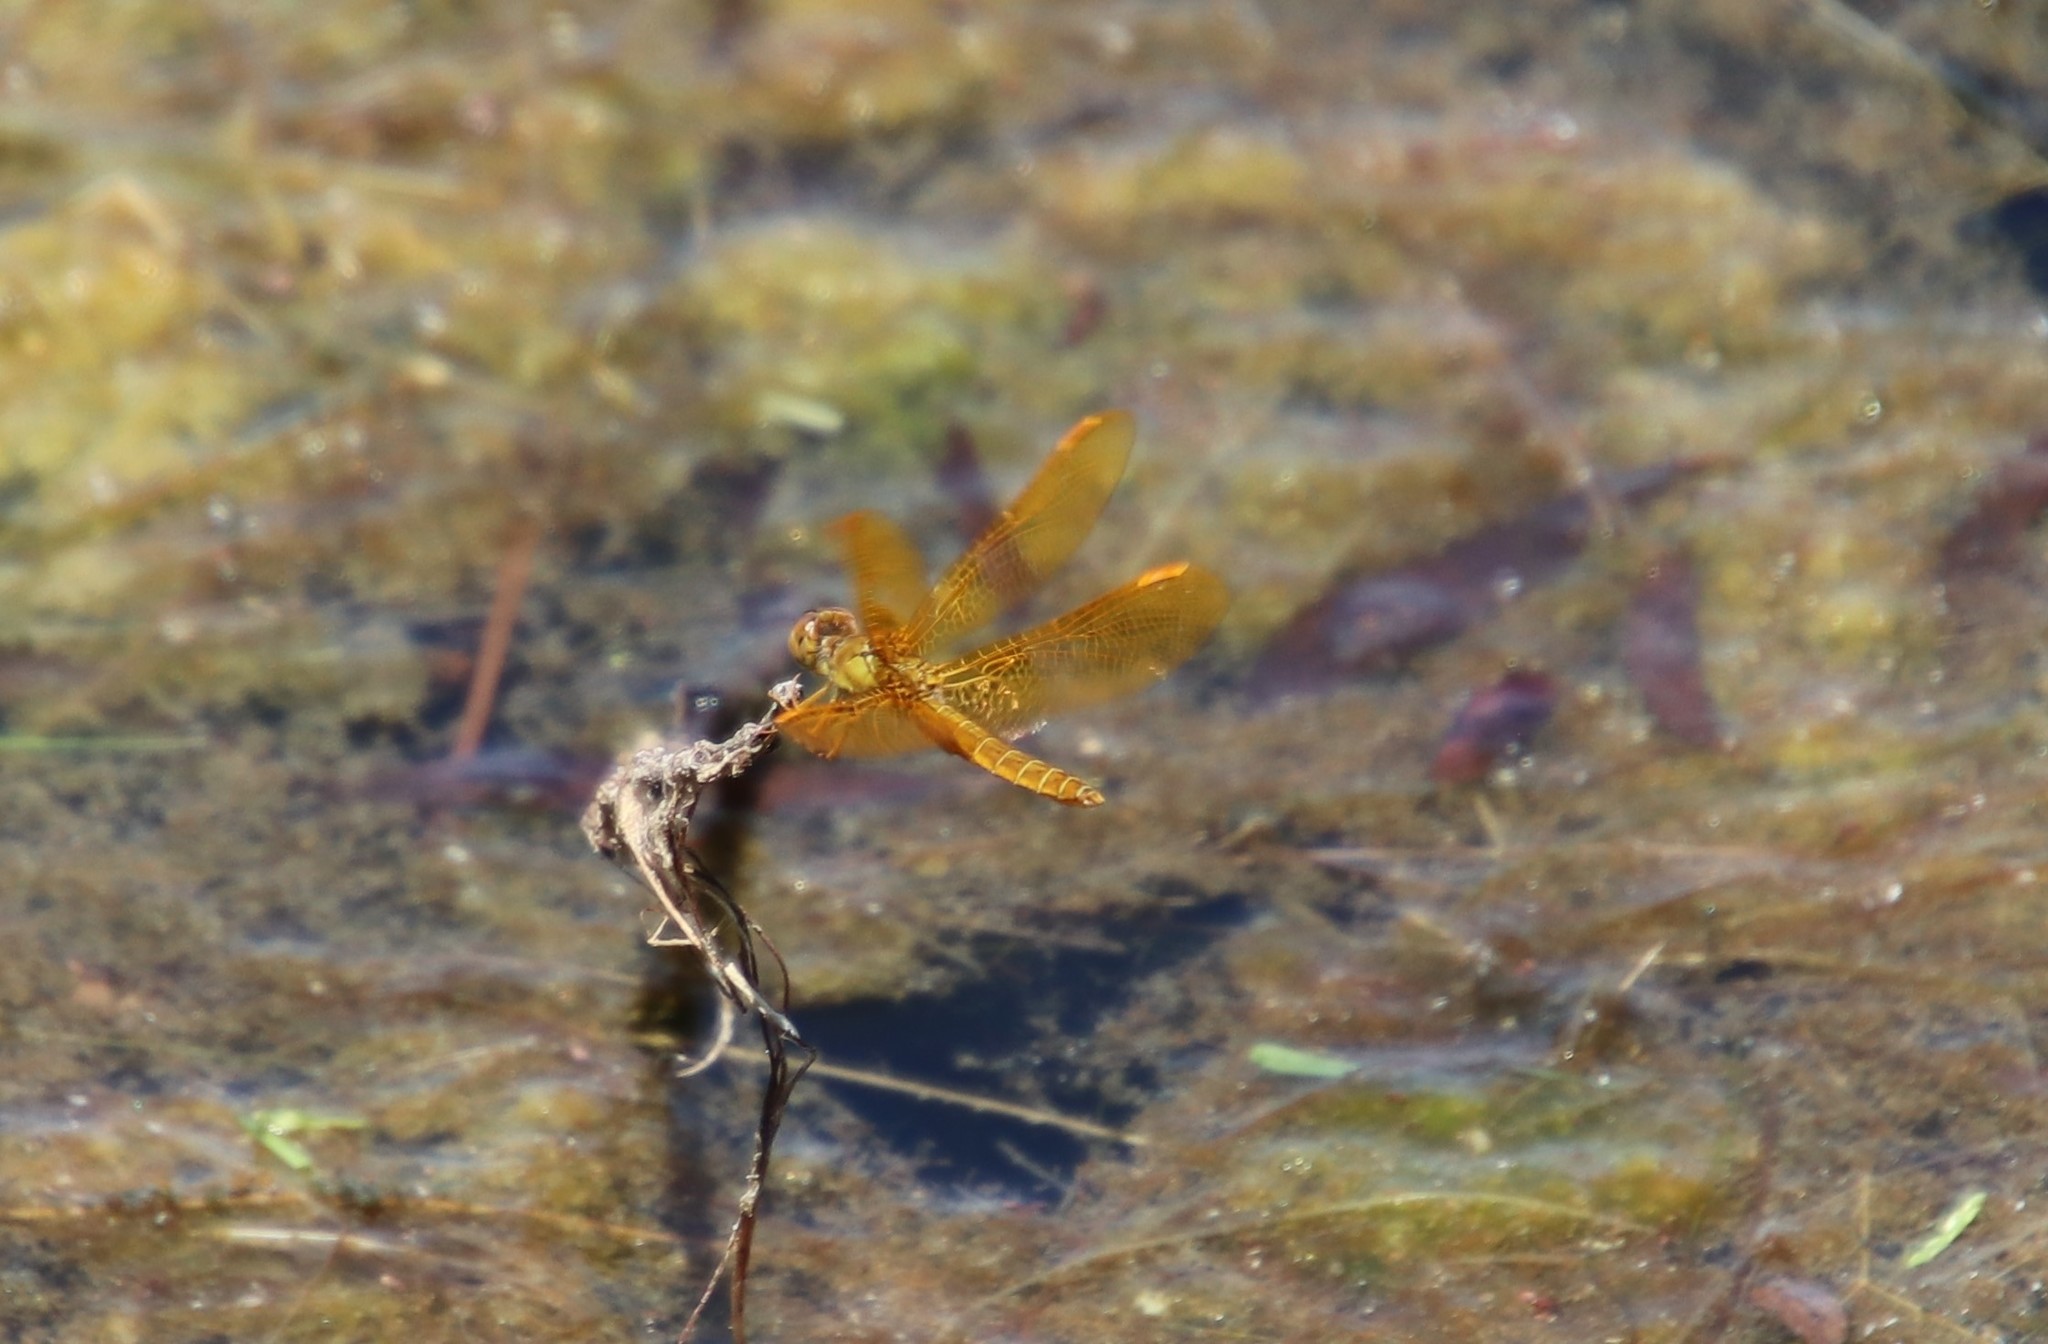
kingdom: Animalia
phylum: Arthropoda
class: Insecta
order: Odonata
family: Libellulidae
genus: Perithemis
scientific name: Perithemis intensa
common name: Mexican amberwing
